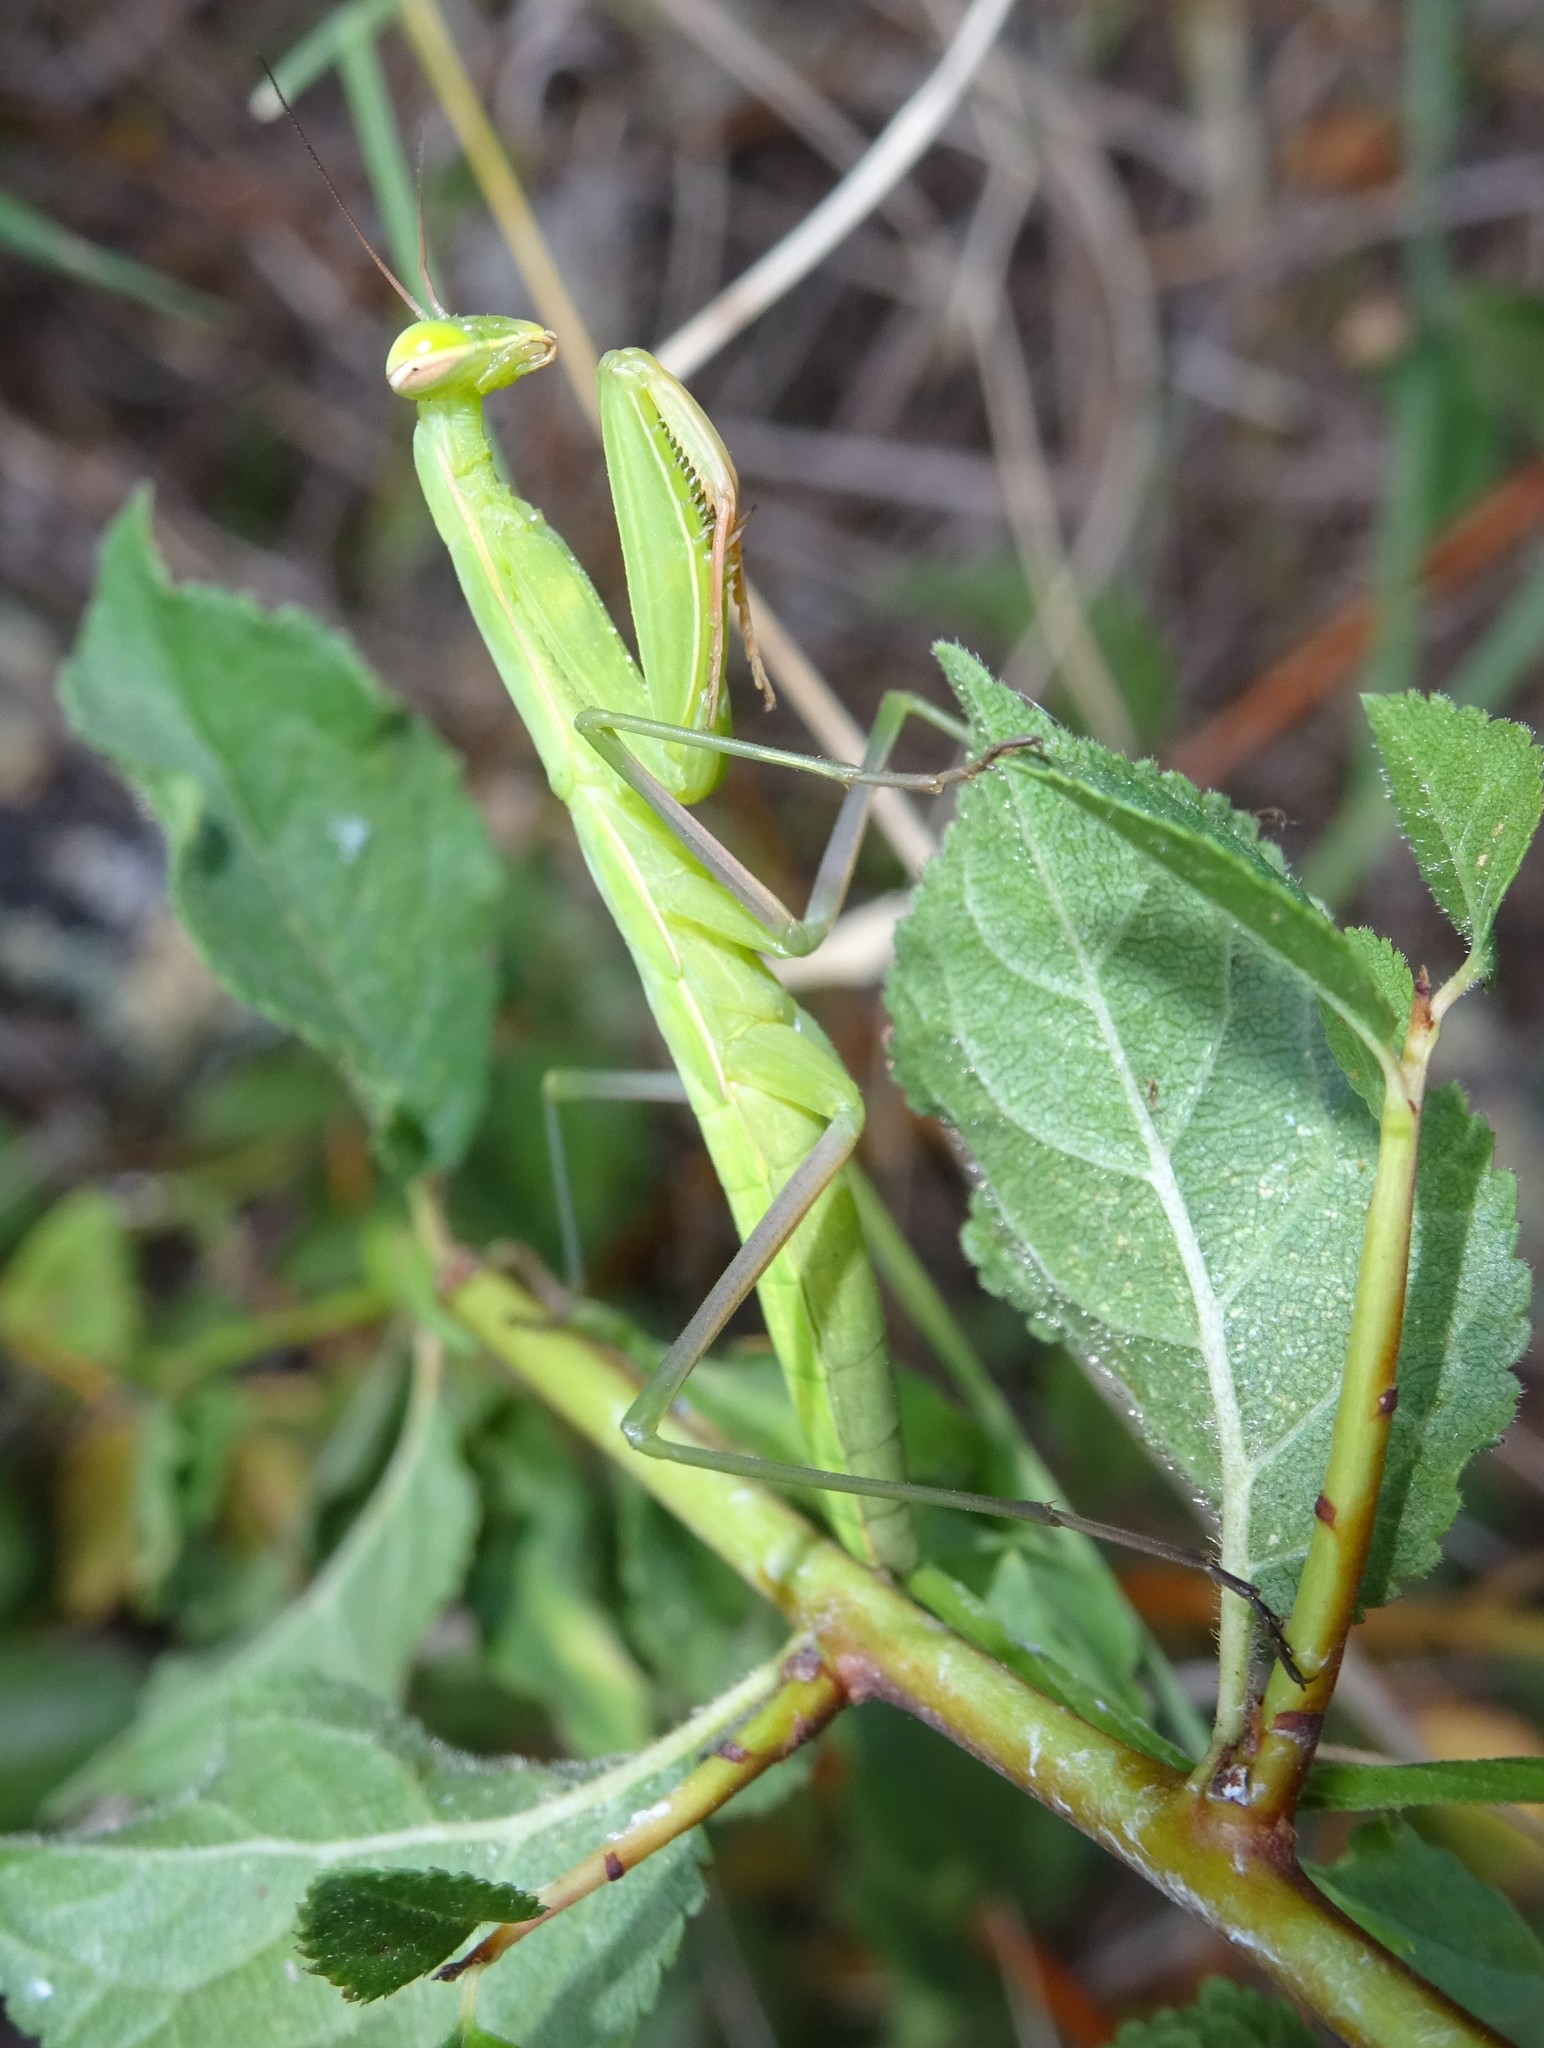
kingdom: Animalia
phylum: Arthropoda
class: Insecta
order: Mantodea
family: Mantidae
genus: Mantis
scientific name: Mantis religiosa
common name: Praying mantis
